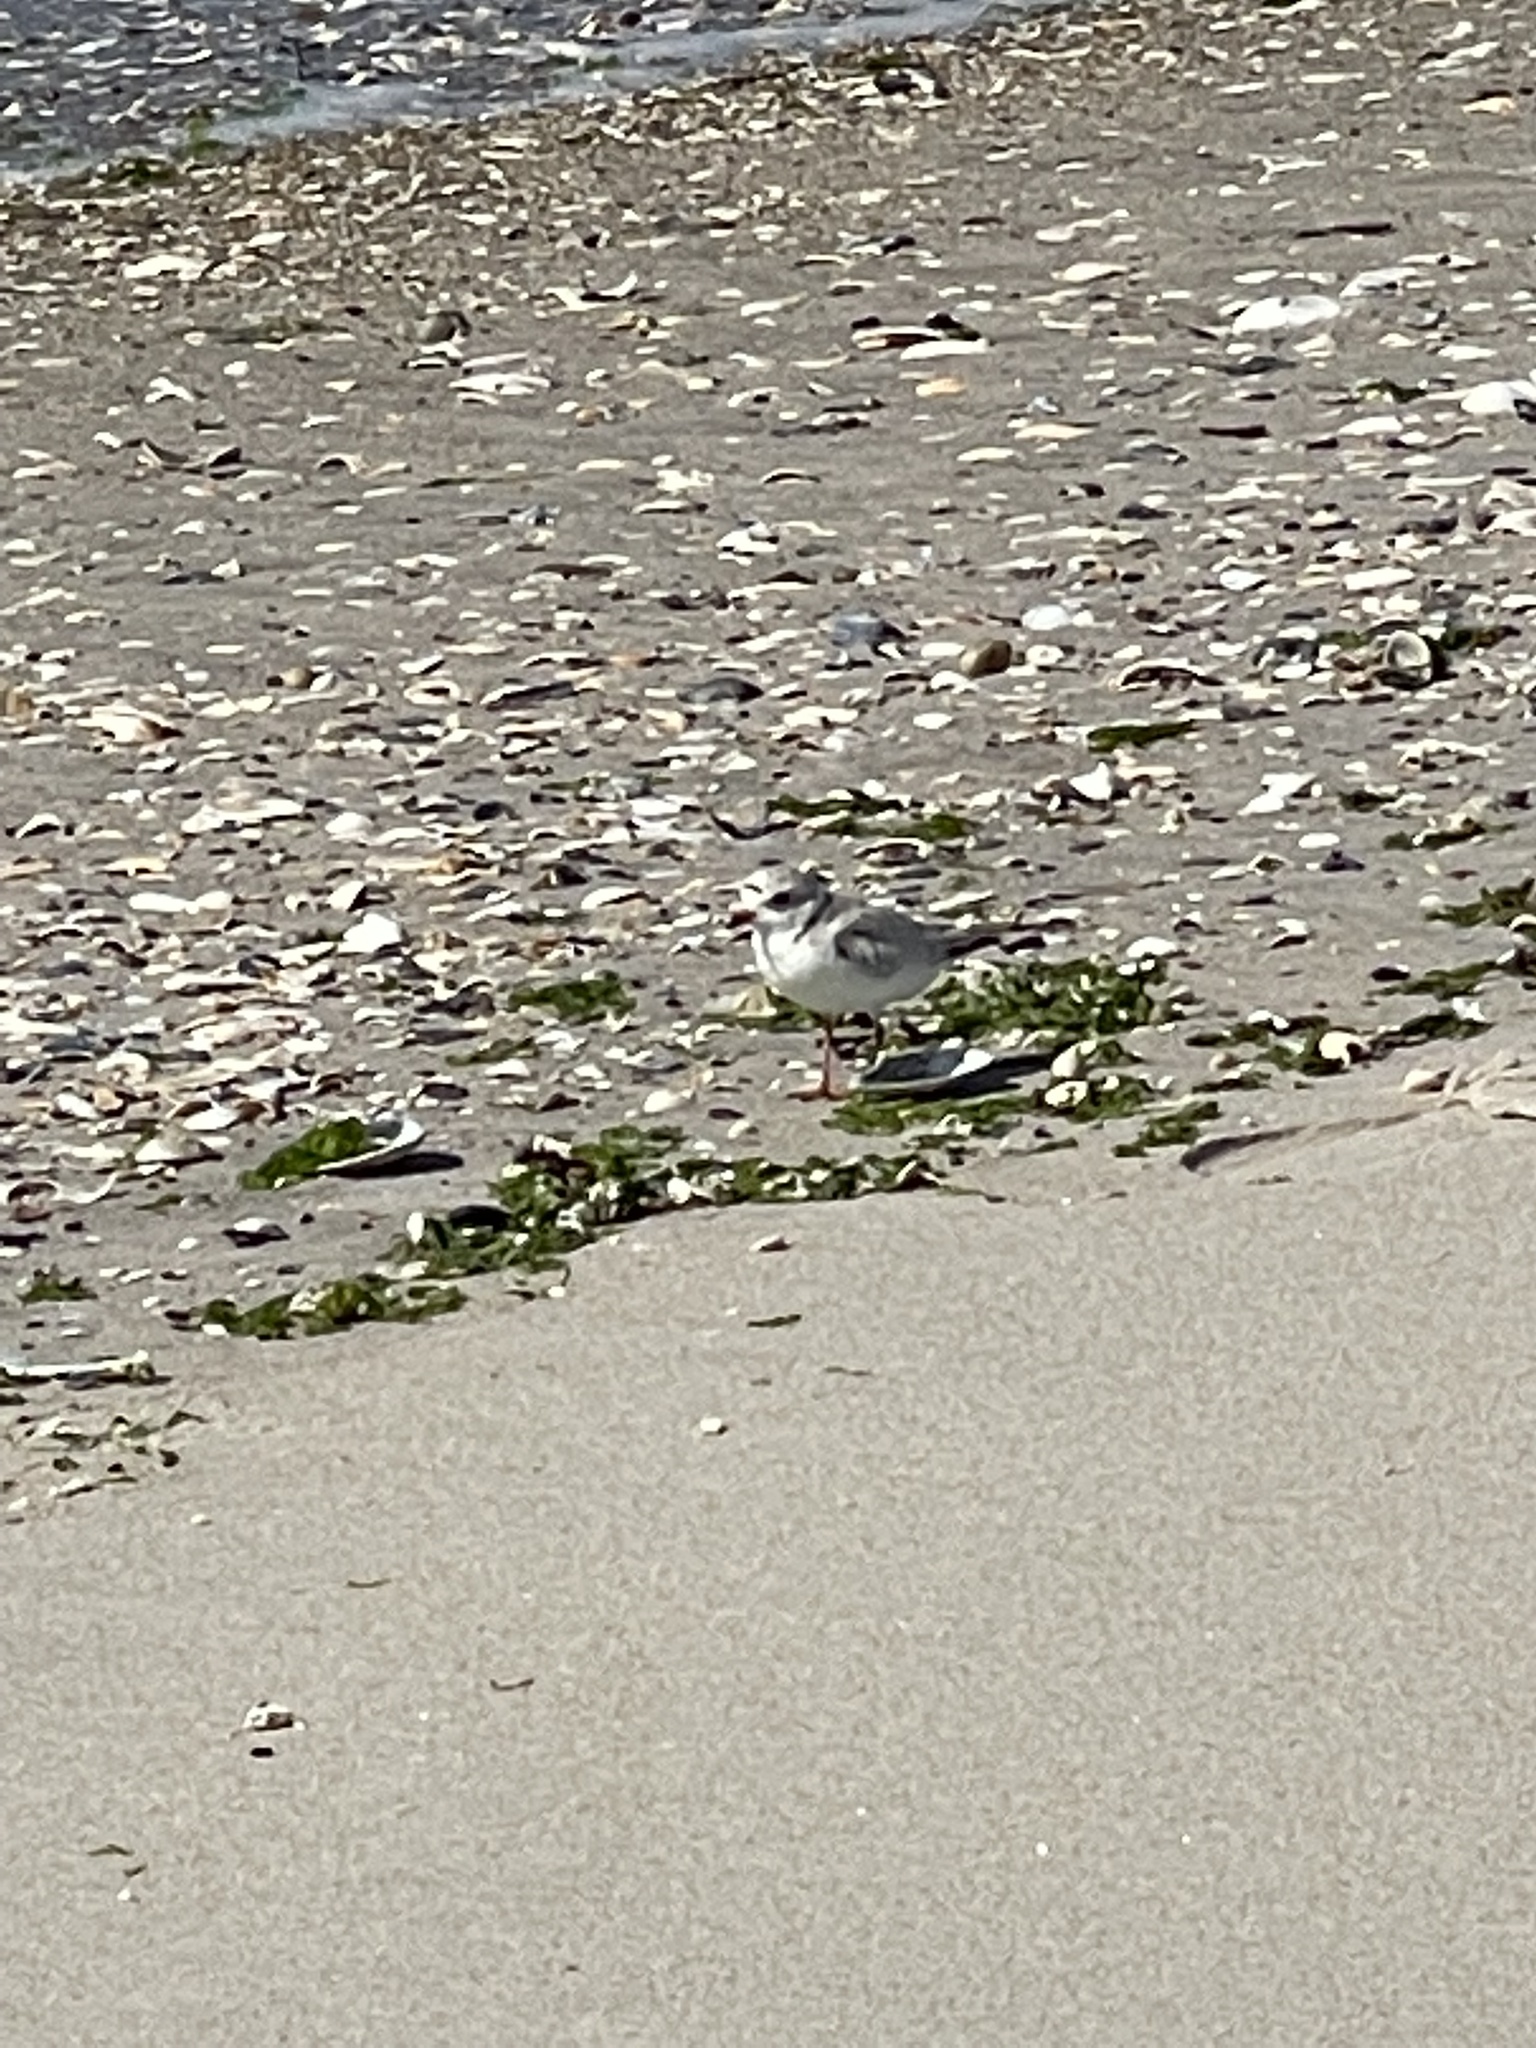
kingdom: Animalia
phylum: Chordata
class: Aves
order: Charadriiformes
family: Charadriidae
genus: Charadrius
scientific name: Charadrius melodus
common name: Piping plover
